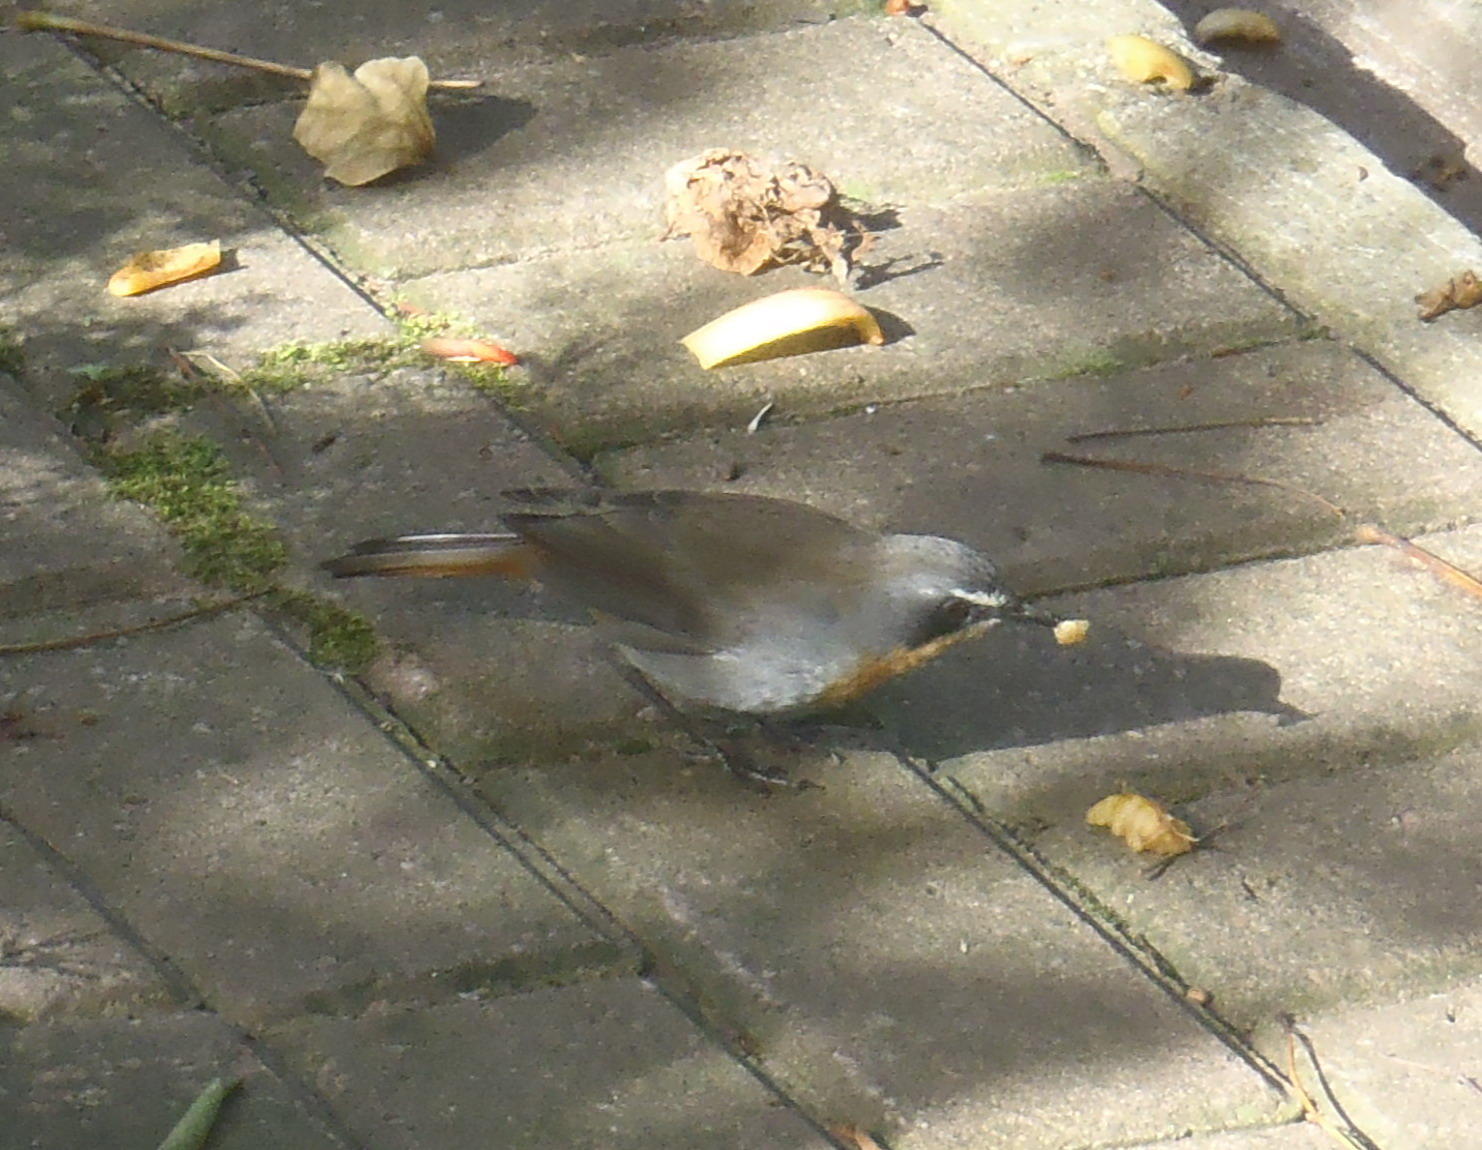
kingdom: Animalia
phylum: Chordata
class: Aves
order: Passeriformes
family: Muscicapidae
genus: Cossypha
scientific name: Cossypha caffra
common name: Cape robin-chat
